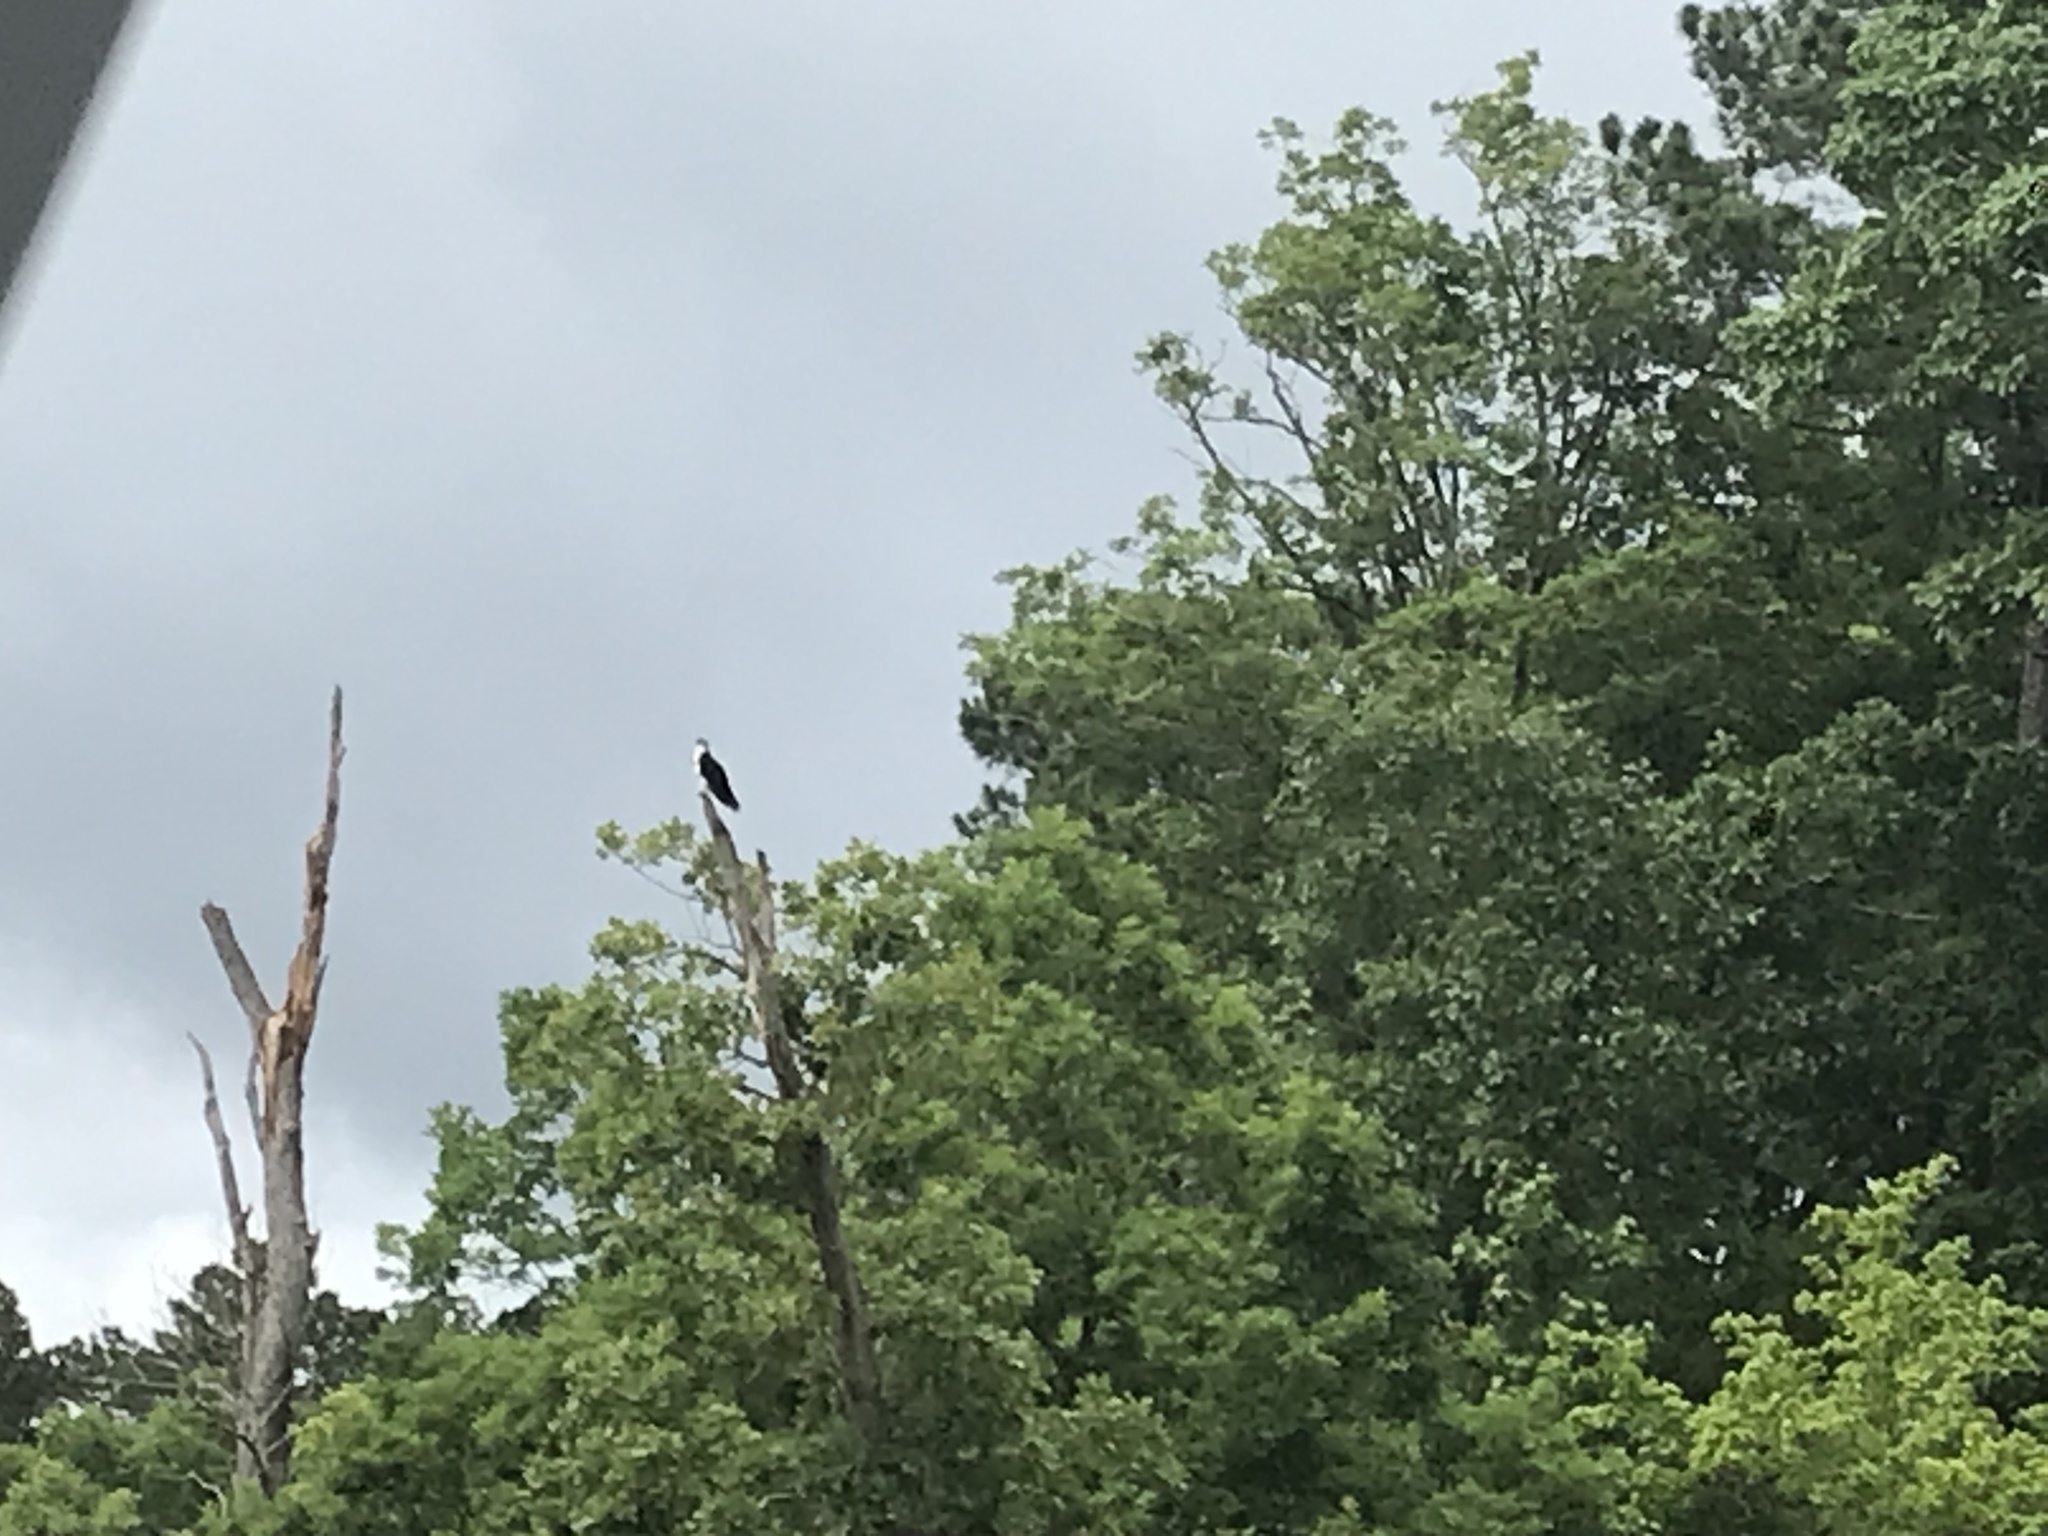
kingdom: Animalia
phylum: Chordata
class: Aves
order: Accipitriformes
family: Pandionidae
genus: Pandion
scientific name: Pandion haliaetus
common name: Osprey
